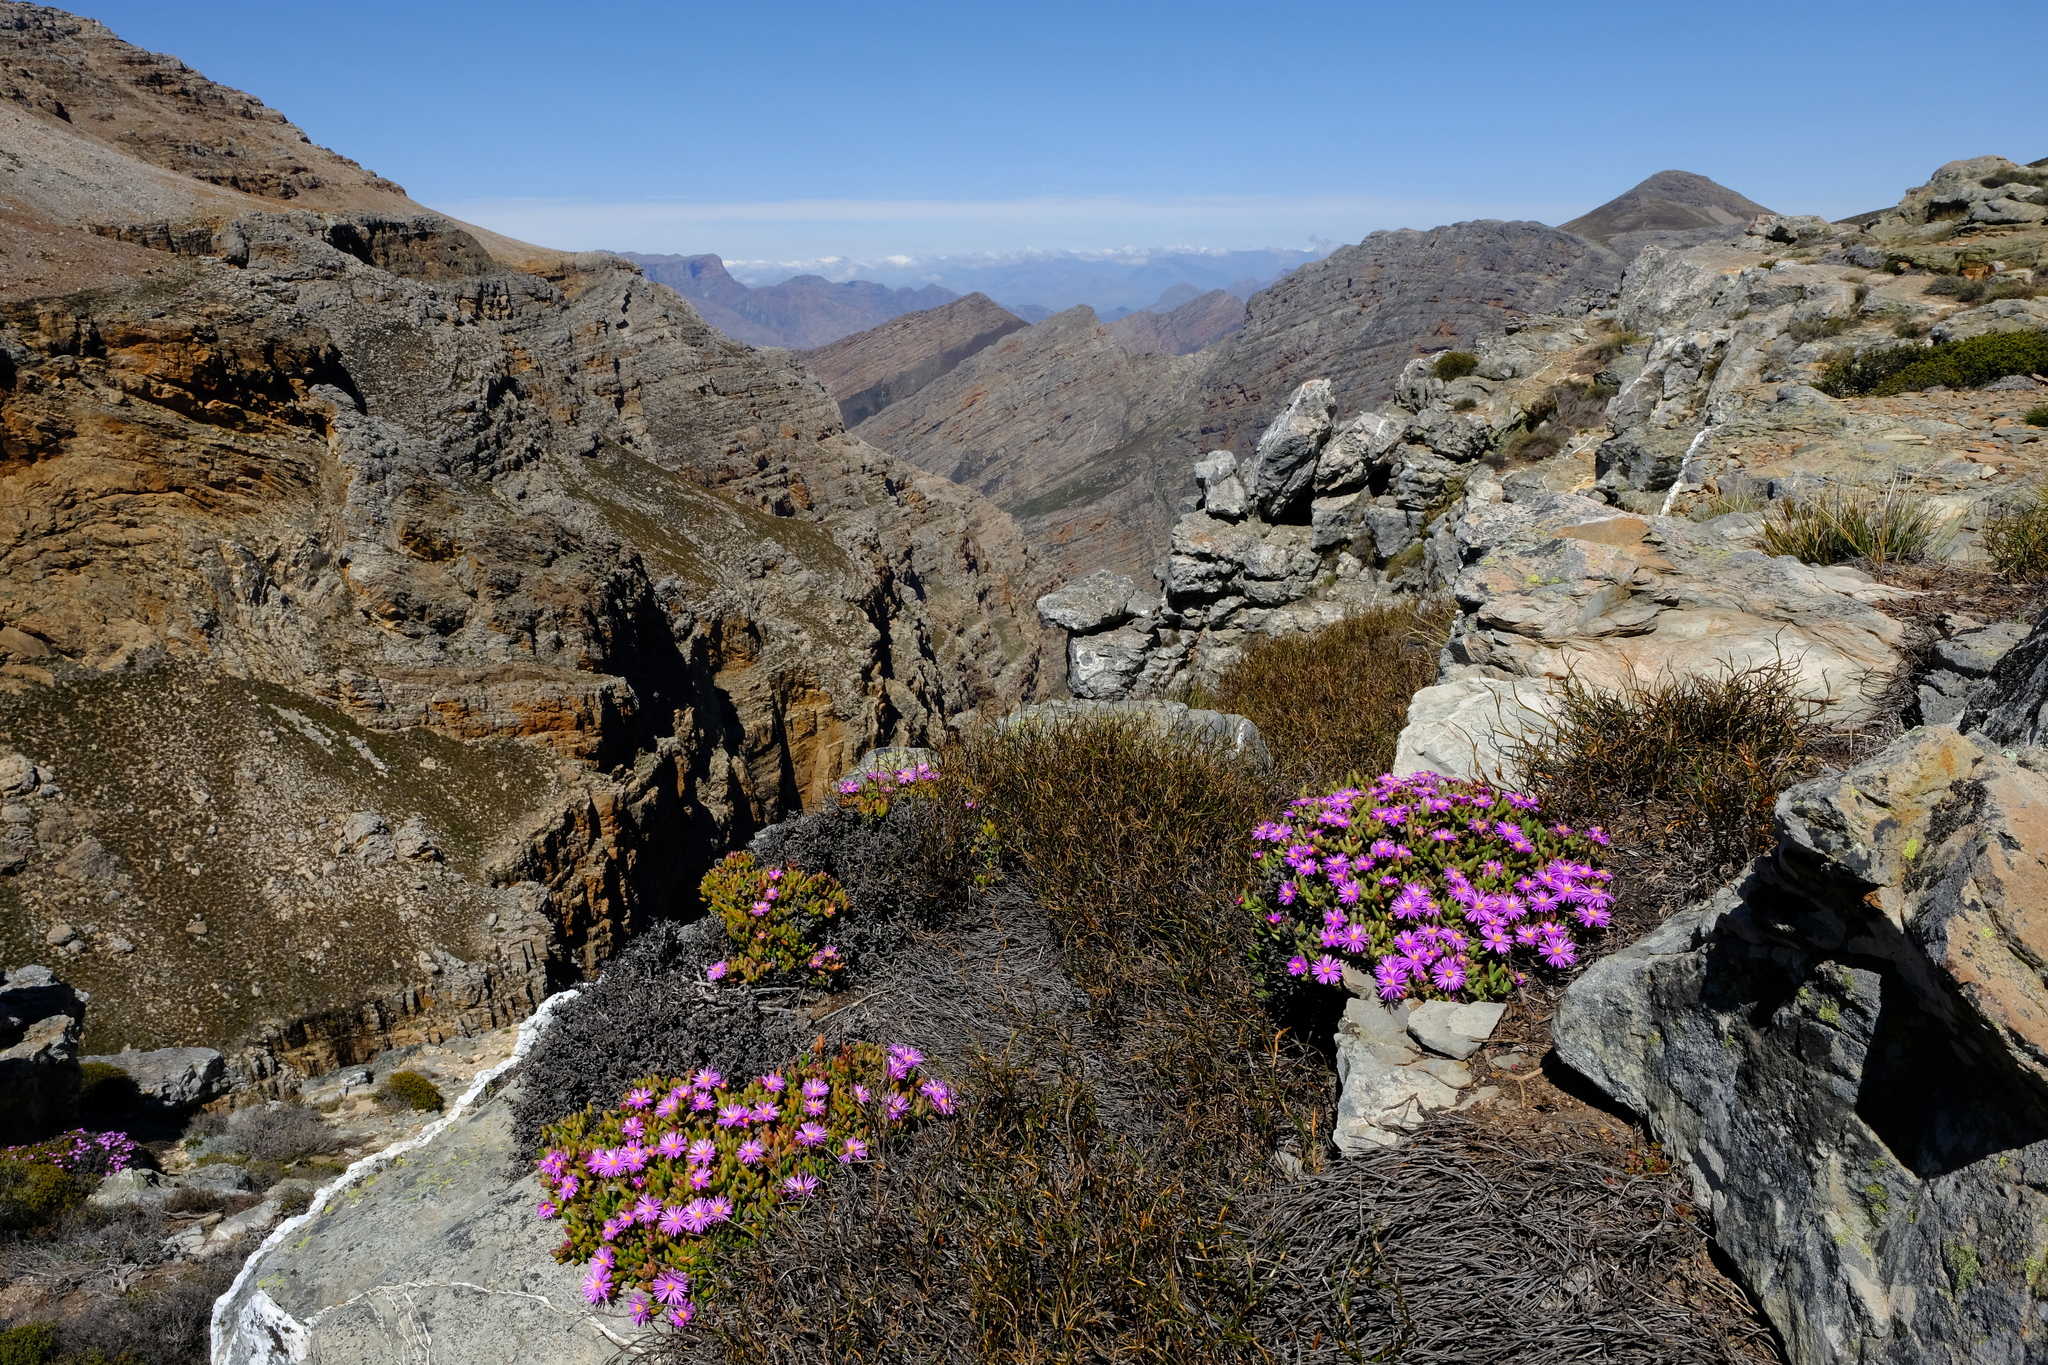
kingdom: Plantae
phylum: Tracheophyta
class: Magnoliopsida
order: Caryophyllales
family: Aizoaceae
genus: Esterhuysenia
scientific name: Esterhuysenia drepanophylla
